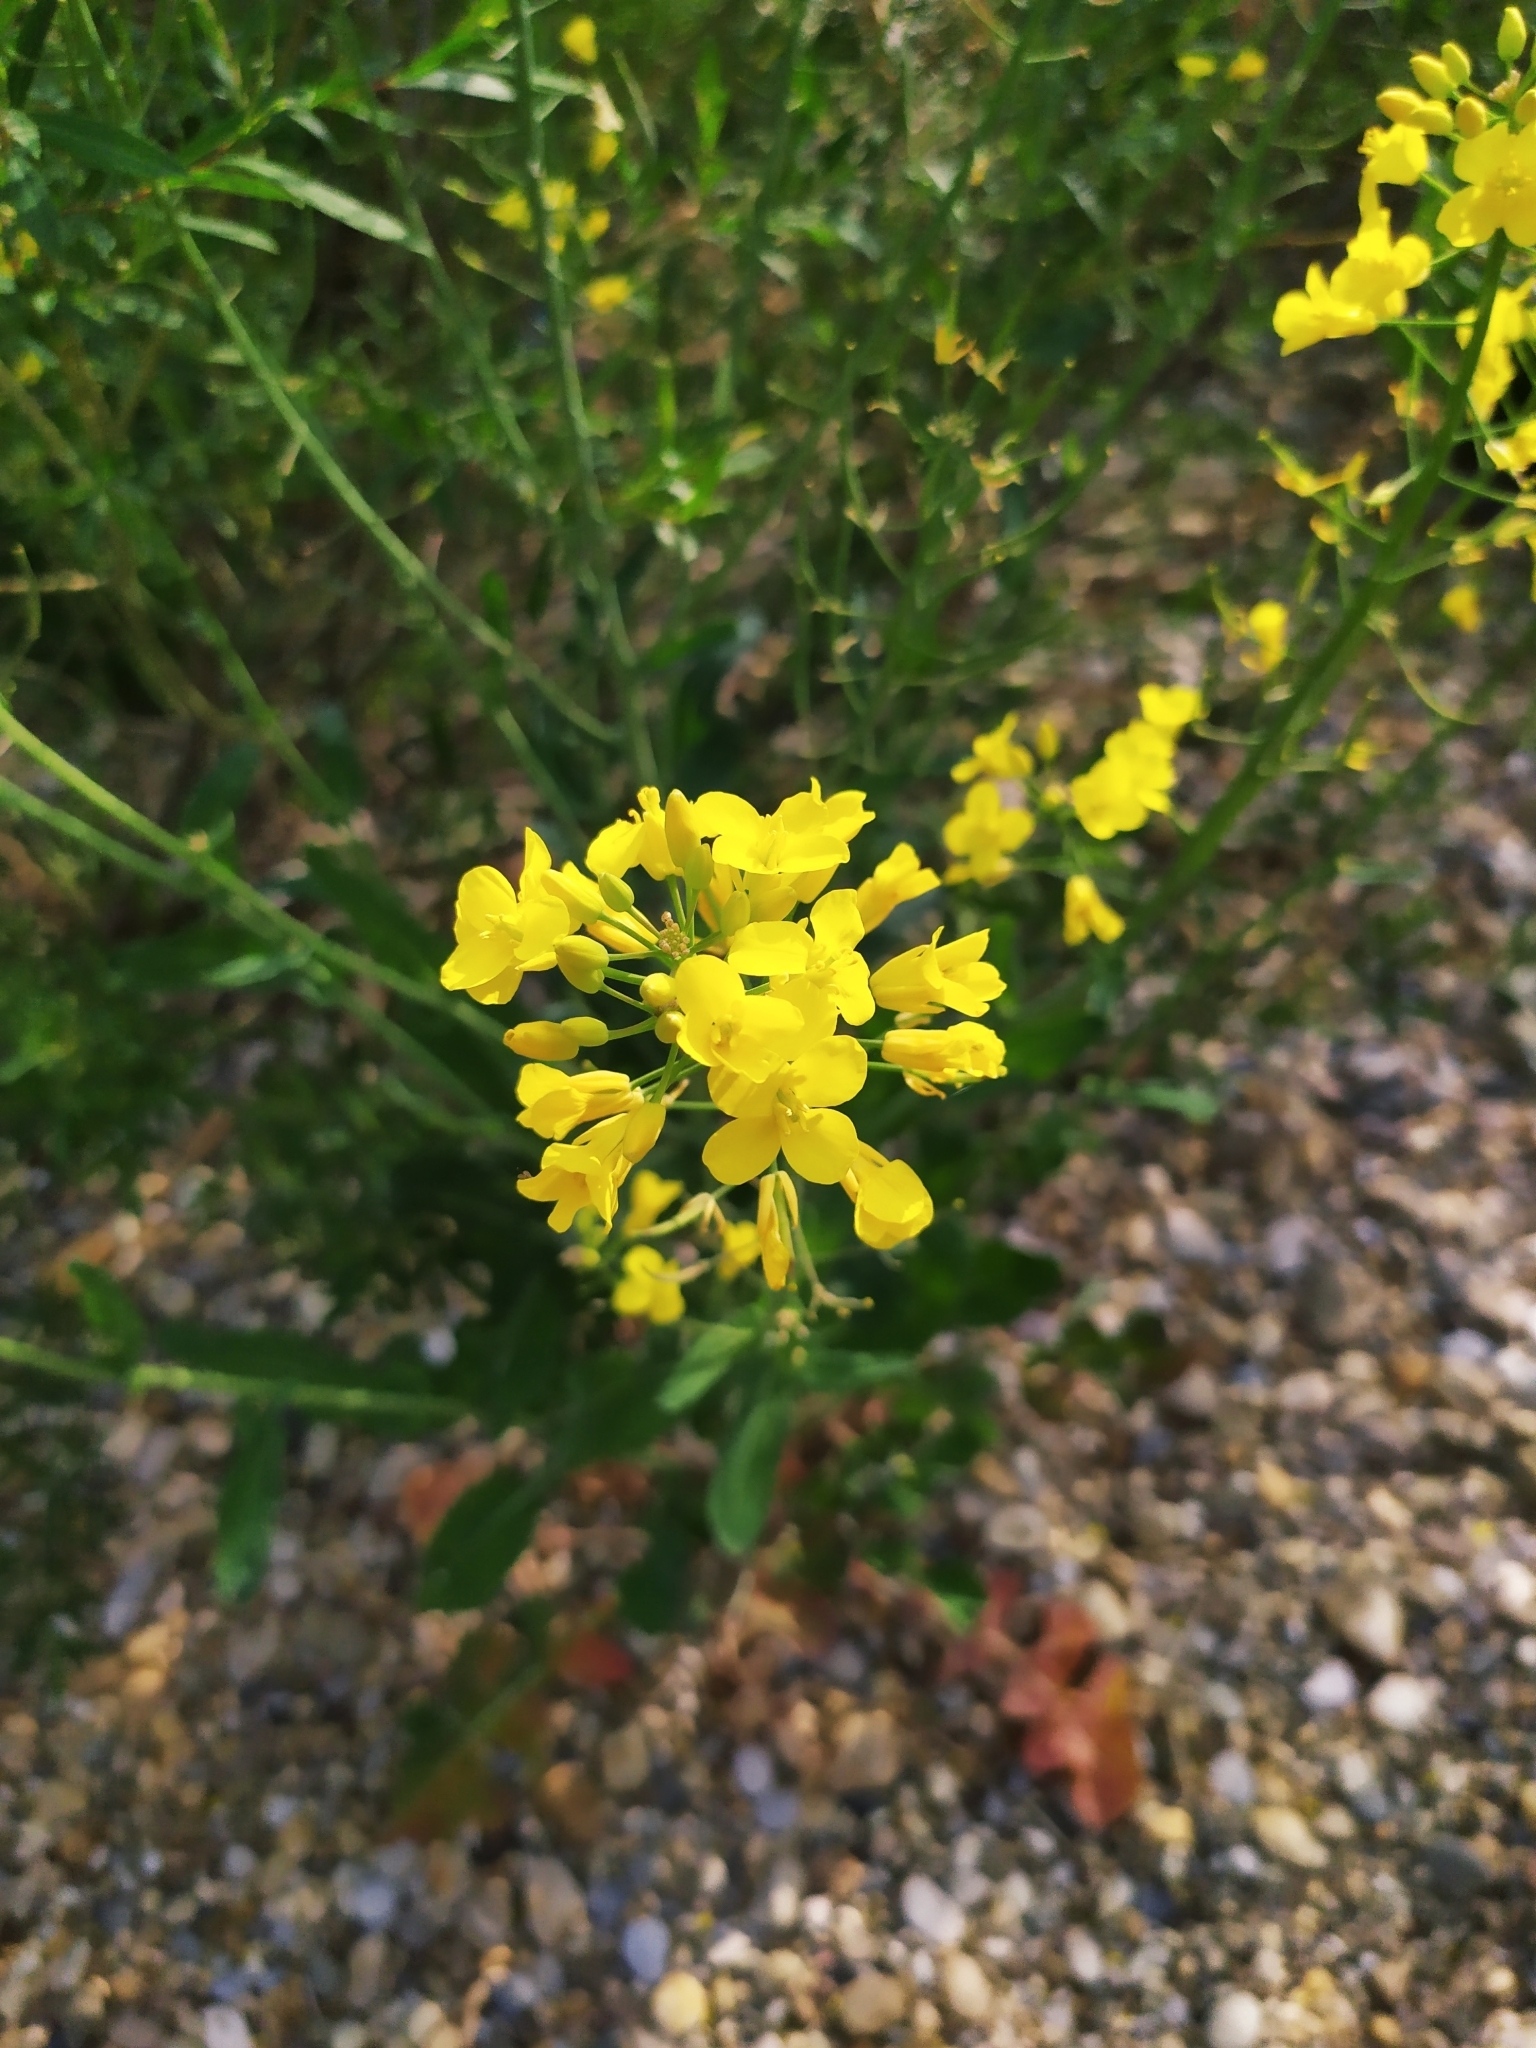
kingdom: Plantae
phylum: Tracheophyta
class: Magnoliopsida
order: Brassicales
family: Brassicaceae
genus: Brassica
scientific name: Brassica napus
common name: Rape
